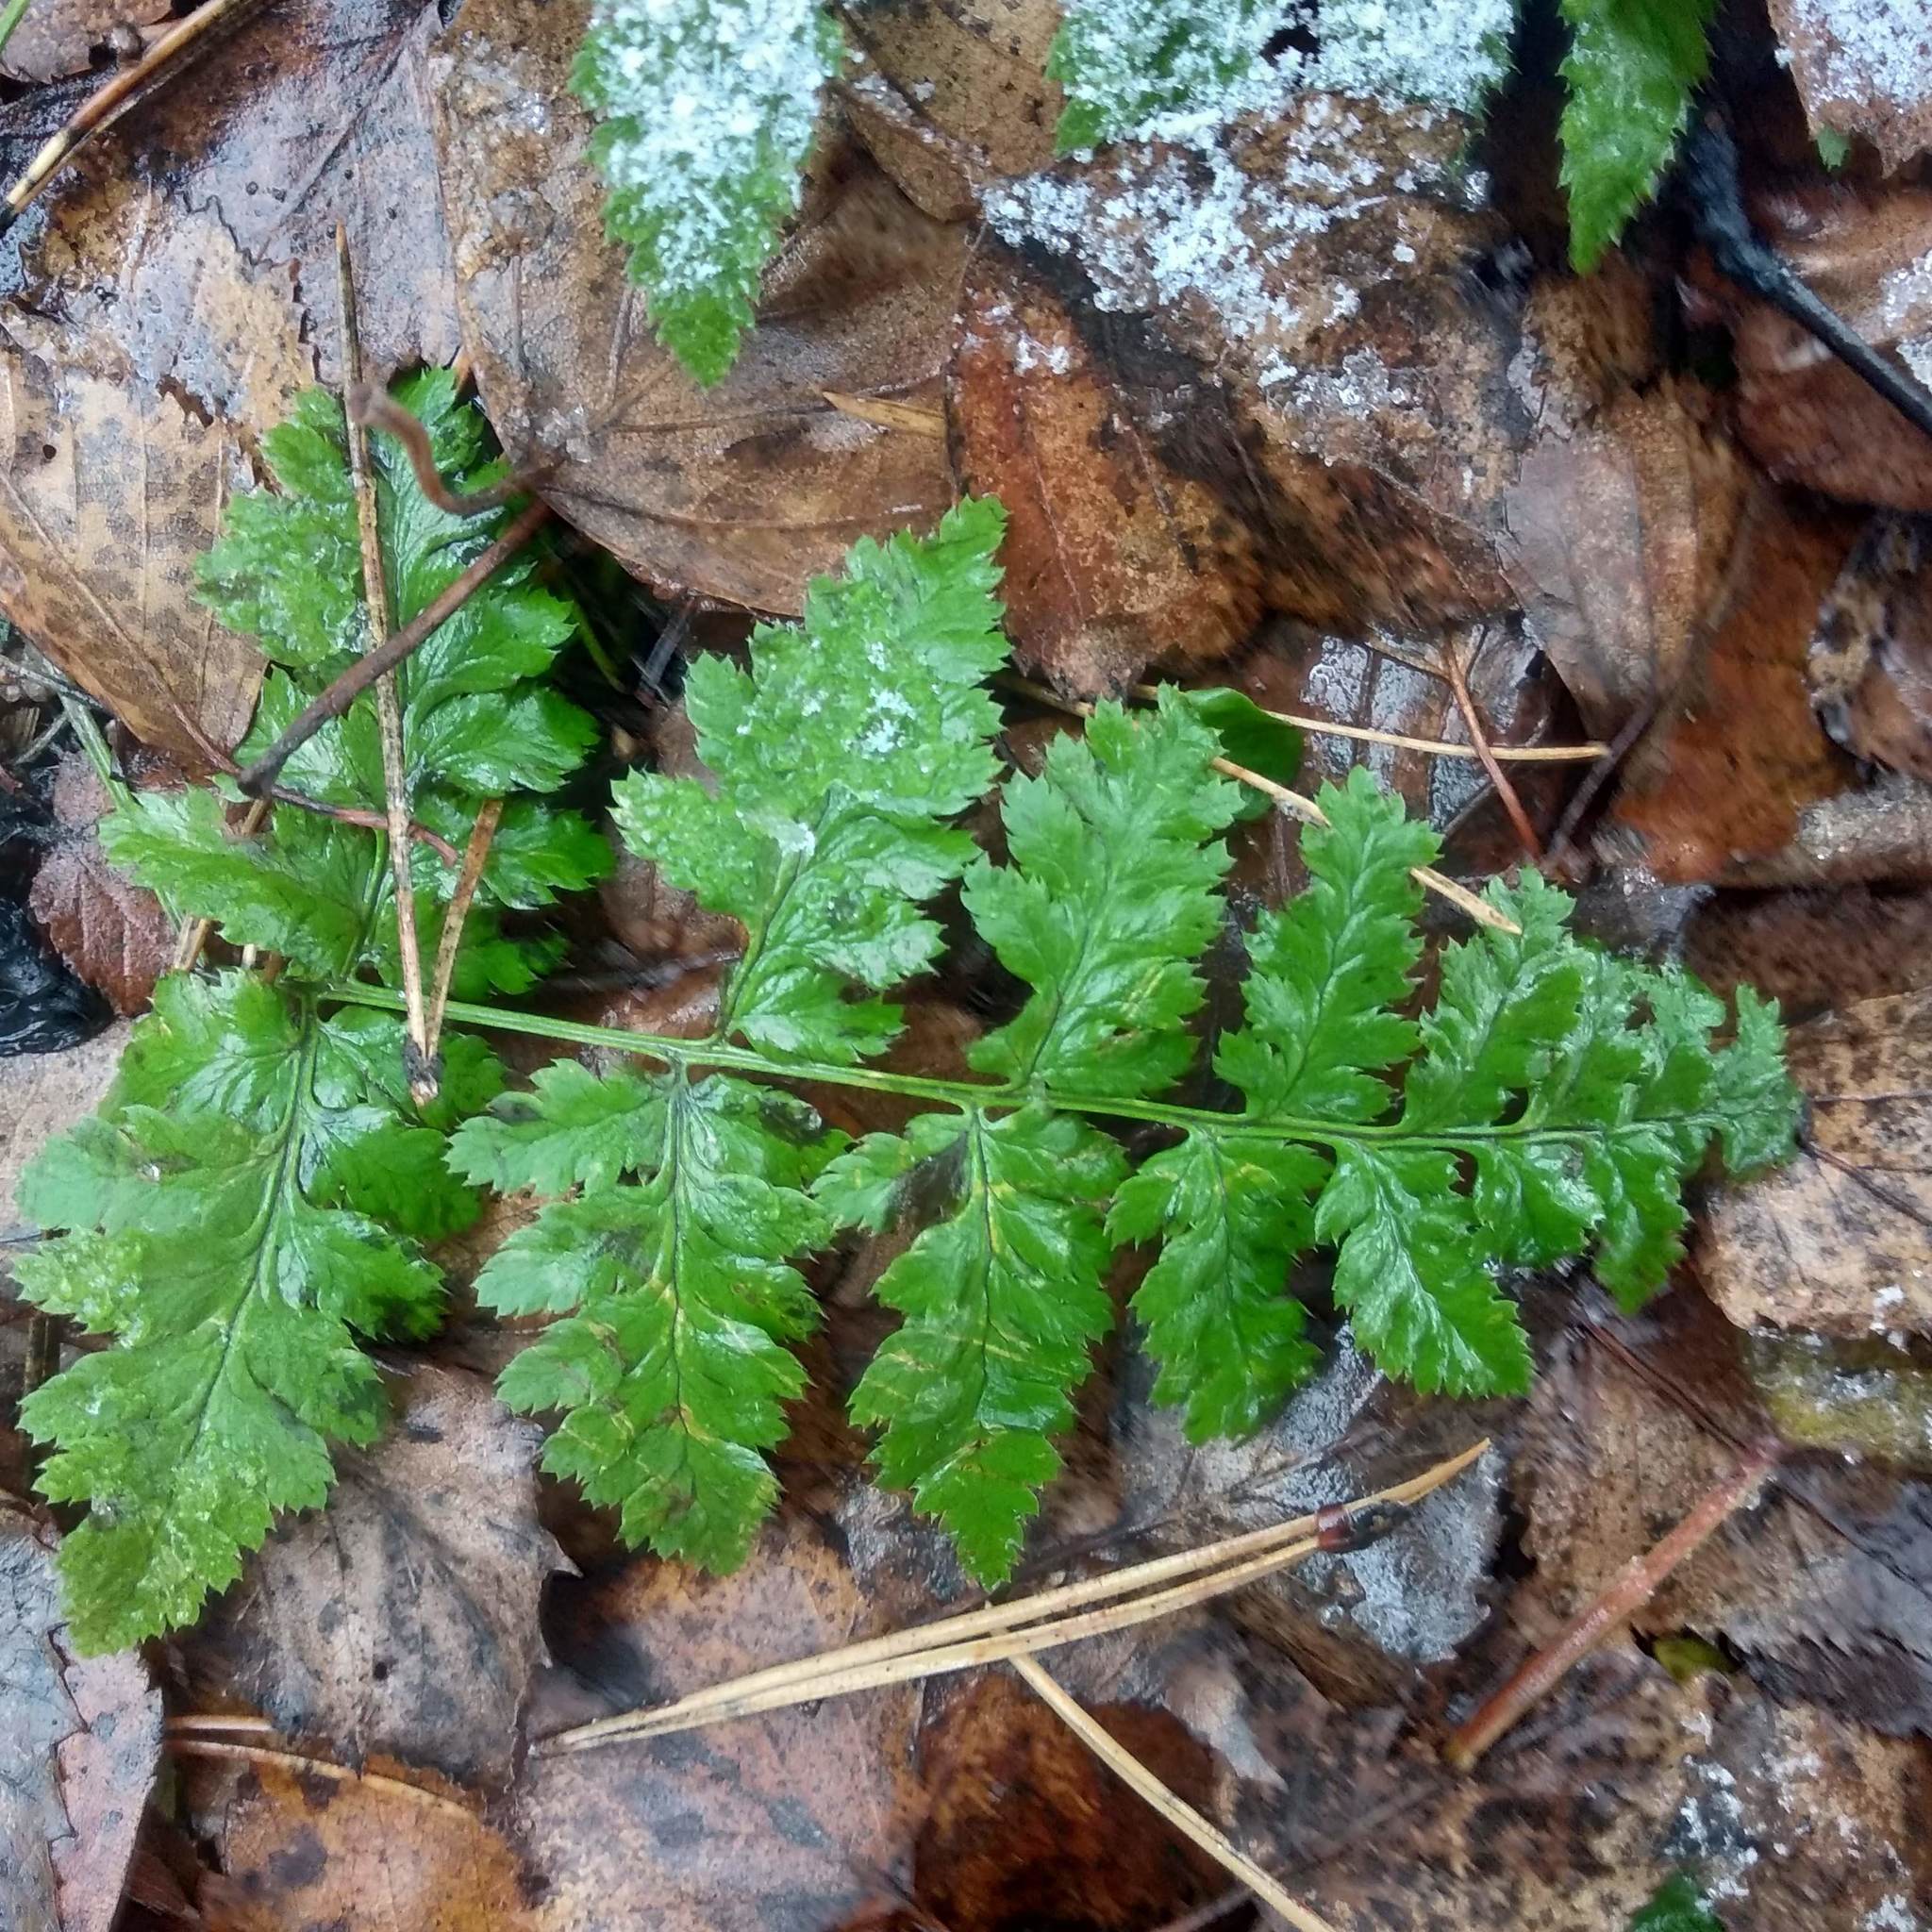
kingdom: Plantae
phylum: Tracheophyta
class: Polypodiopsida
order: Polypodiales
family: Dryopteridaceae
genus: Dryopteris
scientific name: Dryopteris carthusiana
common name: Narrow buckler-fern
